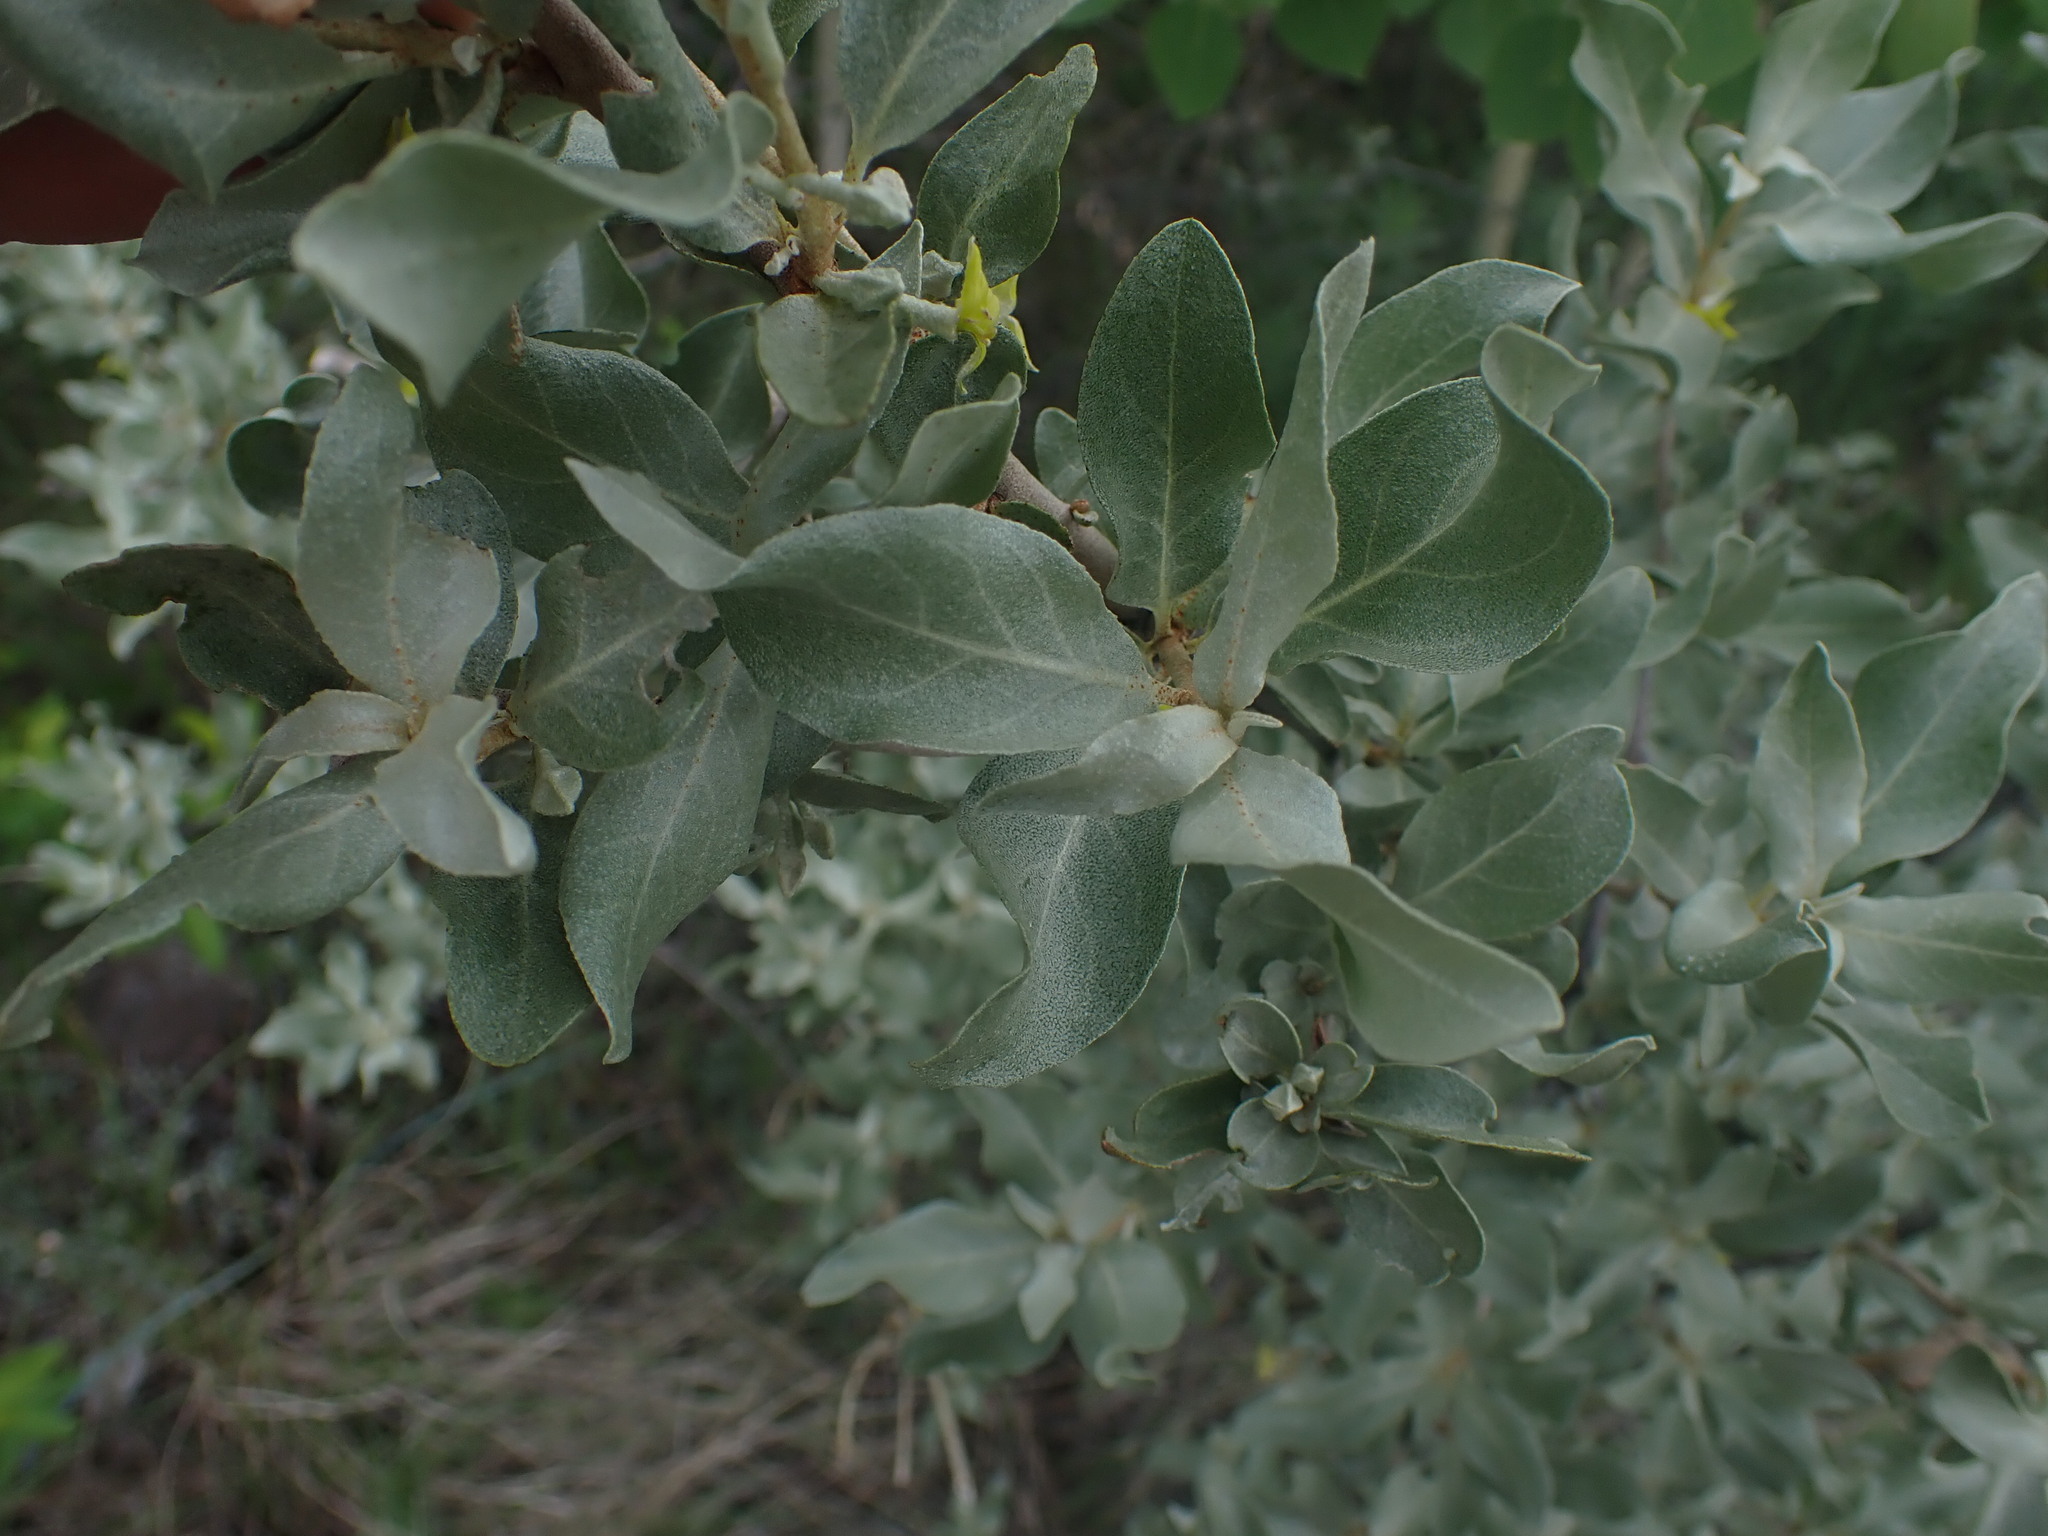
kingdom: Plantae
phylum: Tracheophyta
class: Magnoliopsida
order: Rosales
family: Elaeagnaceae
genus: Elaeagnus
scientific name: Elaeagnus commutata
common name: Silverberry
